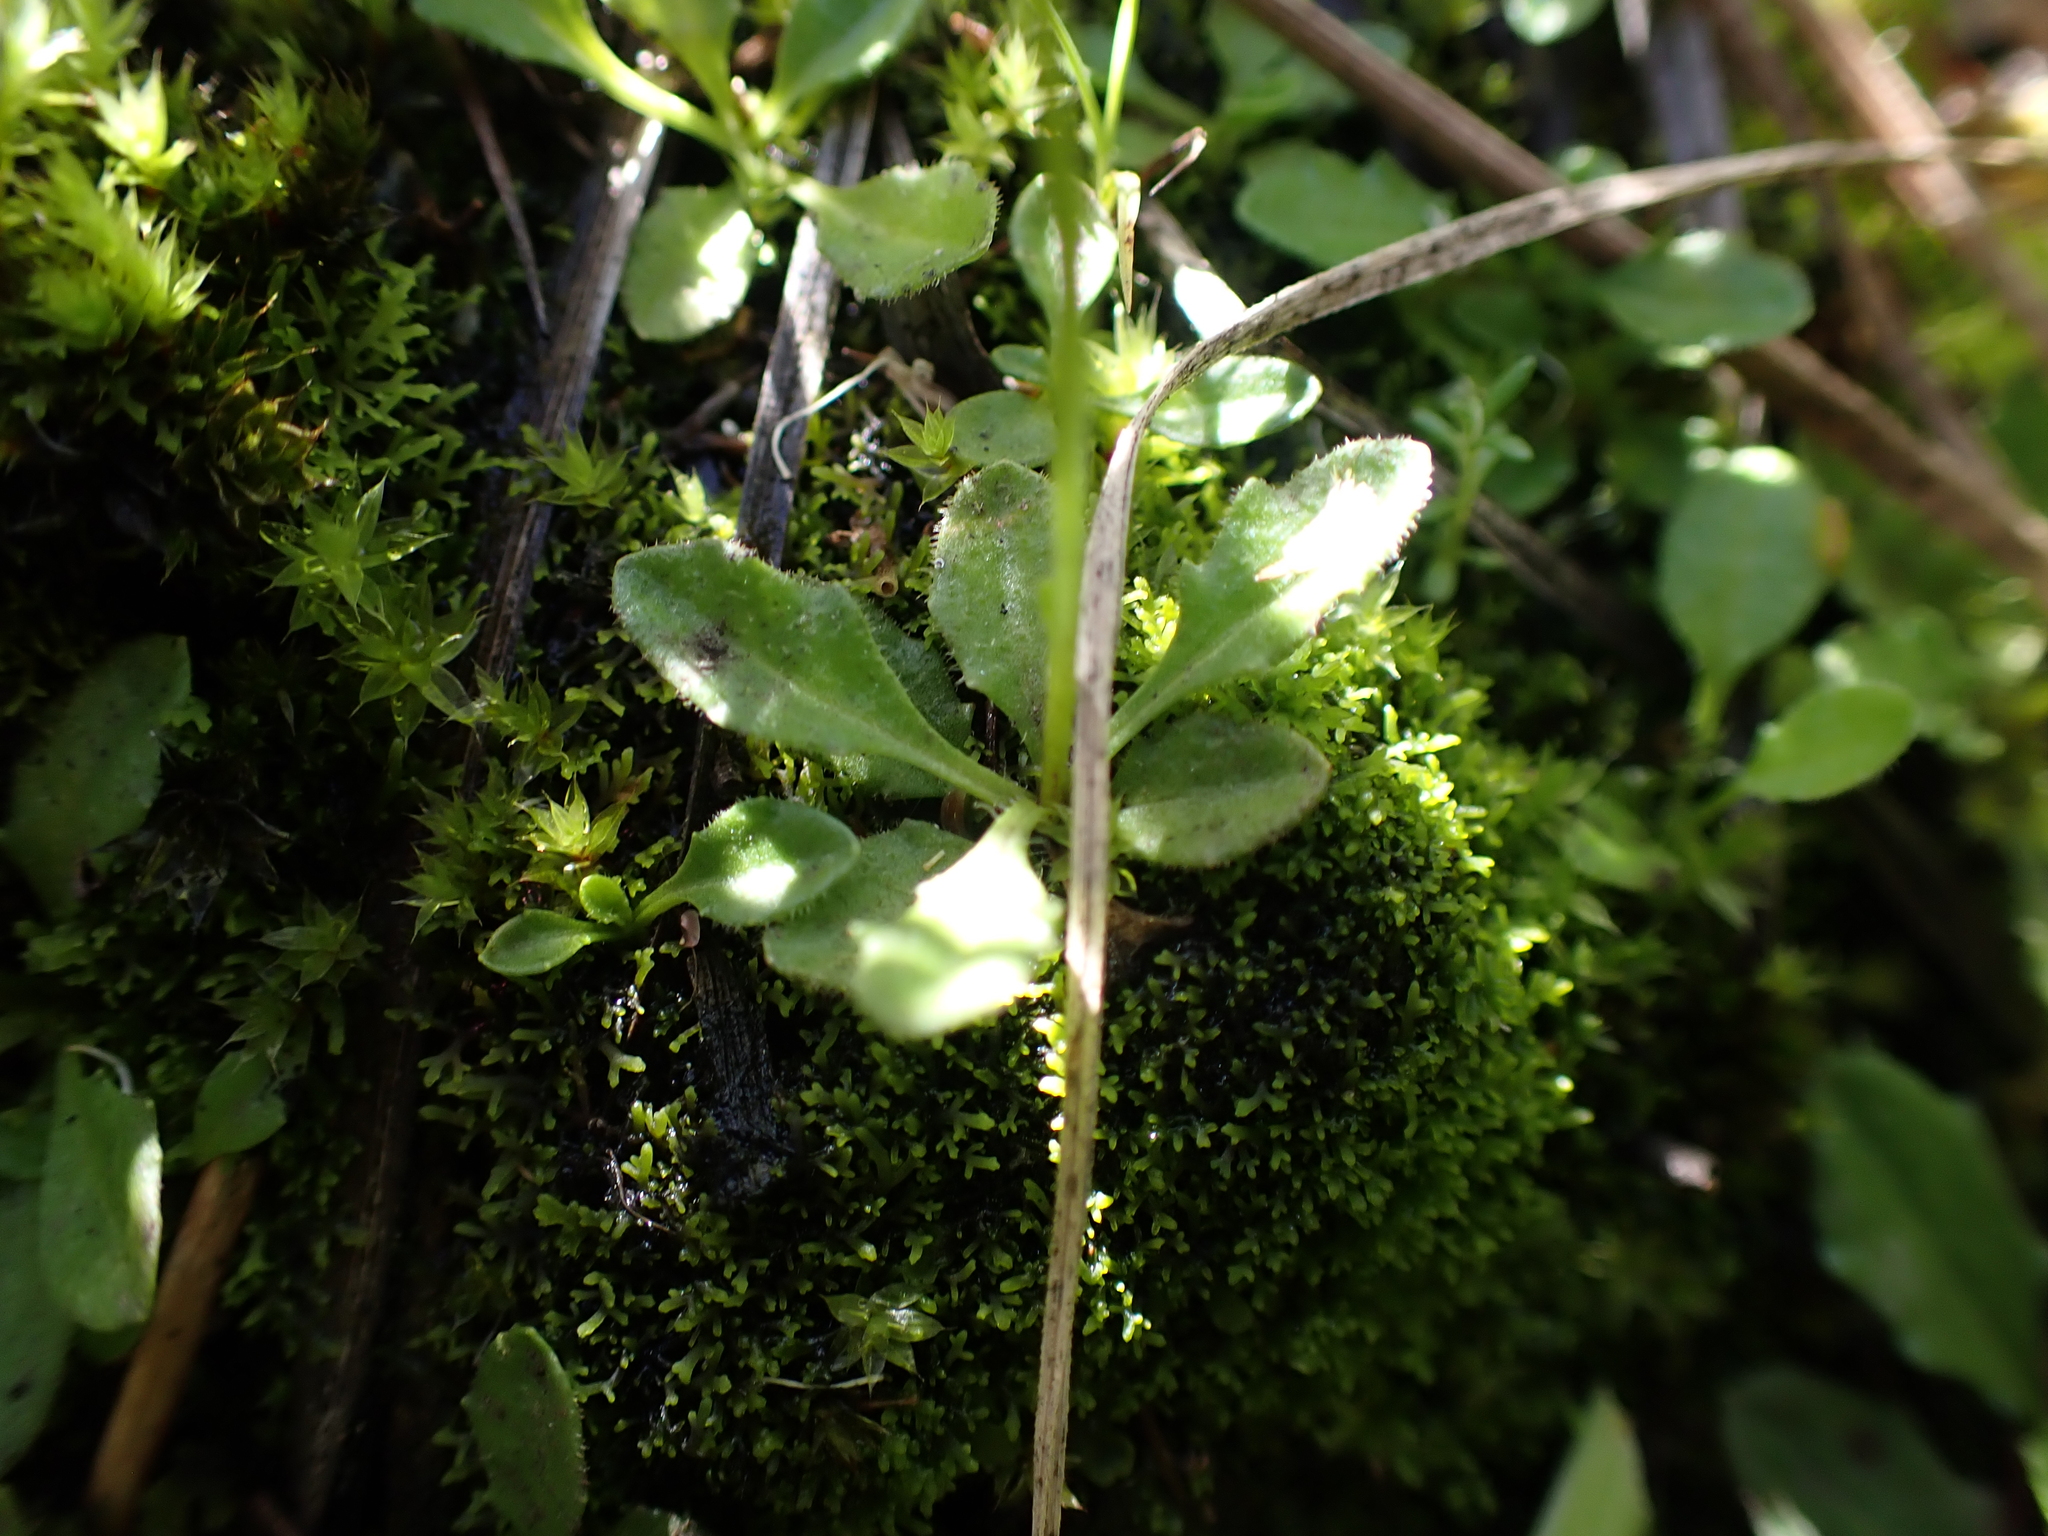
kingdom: Plantae
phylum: Tracheophyta
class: Magnoliopsida
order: Asterales
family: Asteraceae
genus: Lagenophora
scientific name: Lagenophora montana
